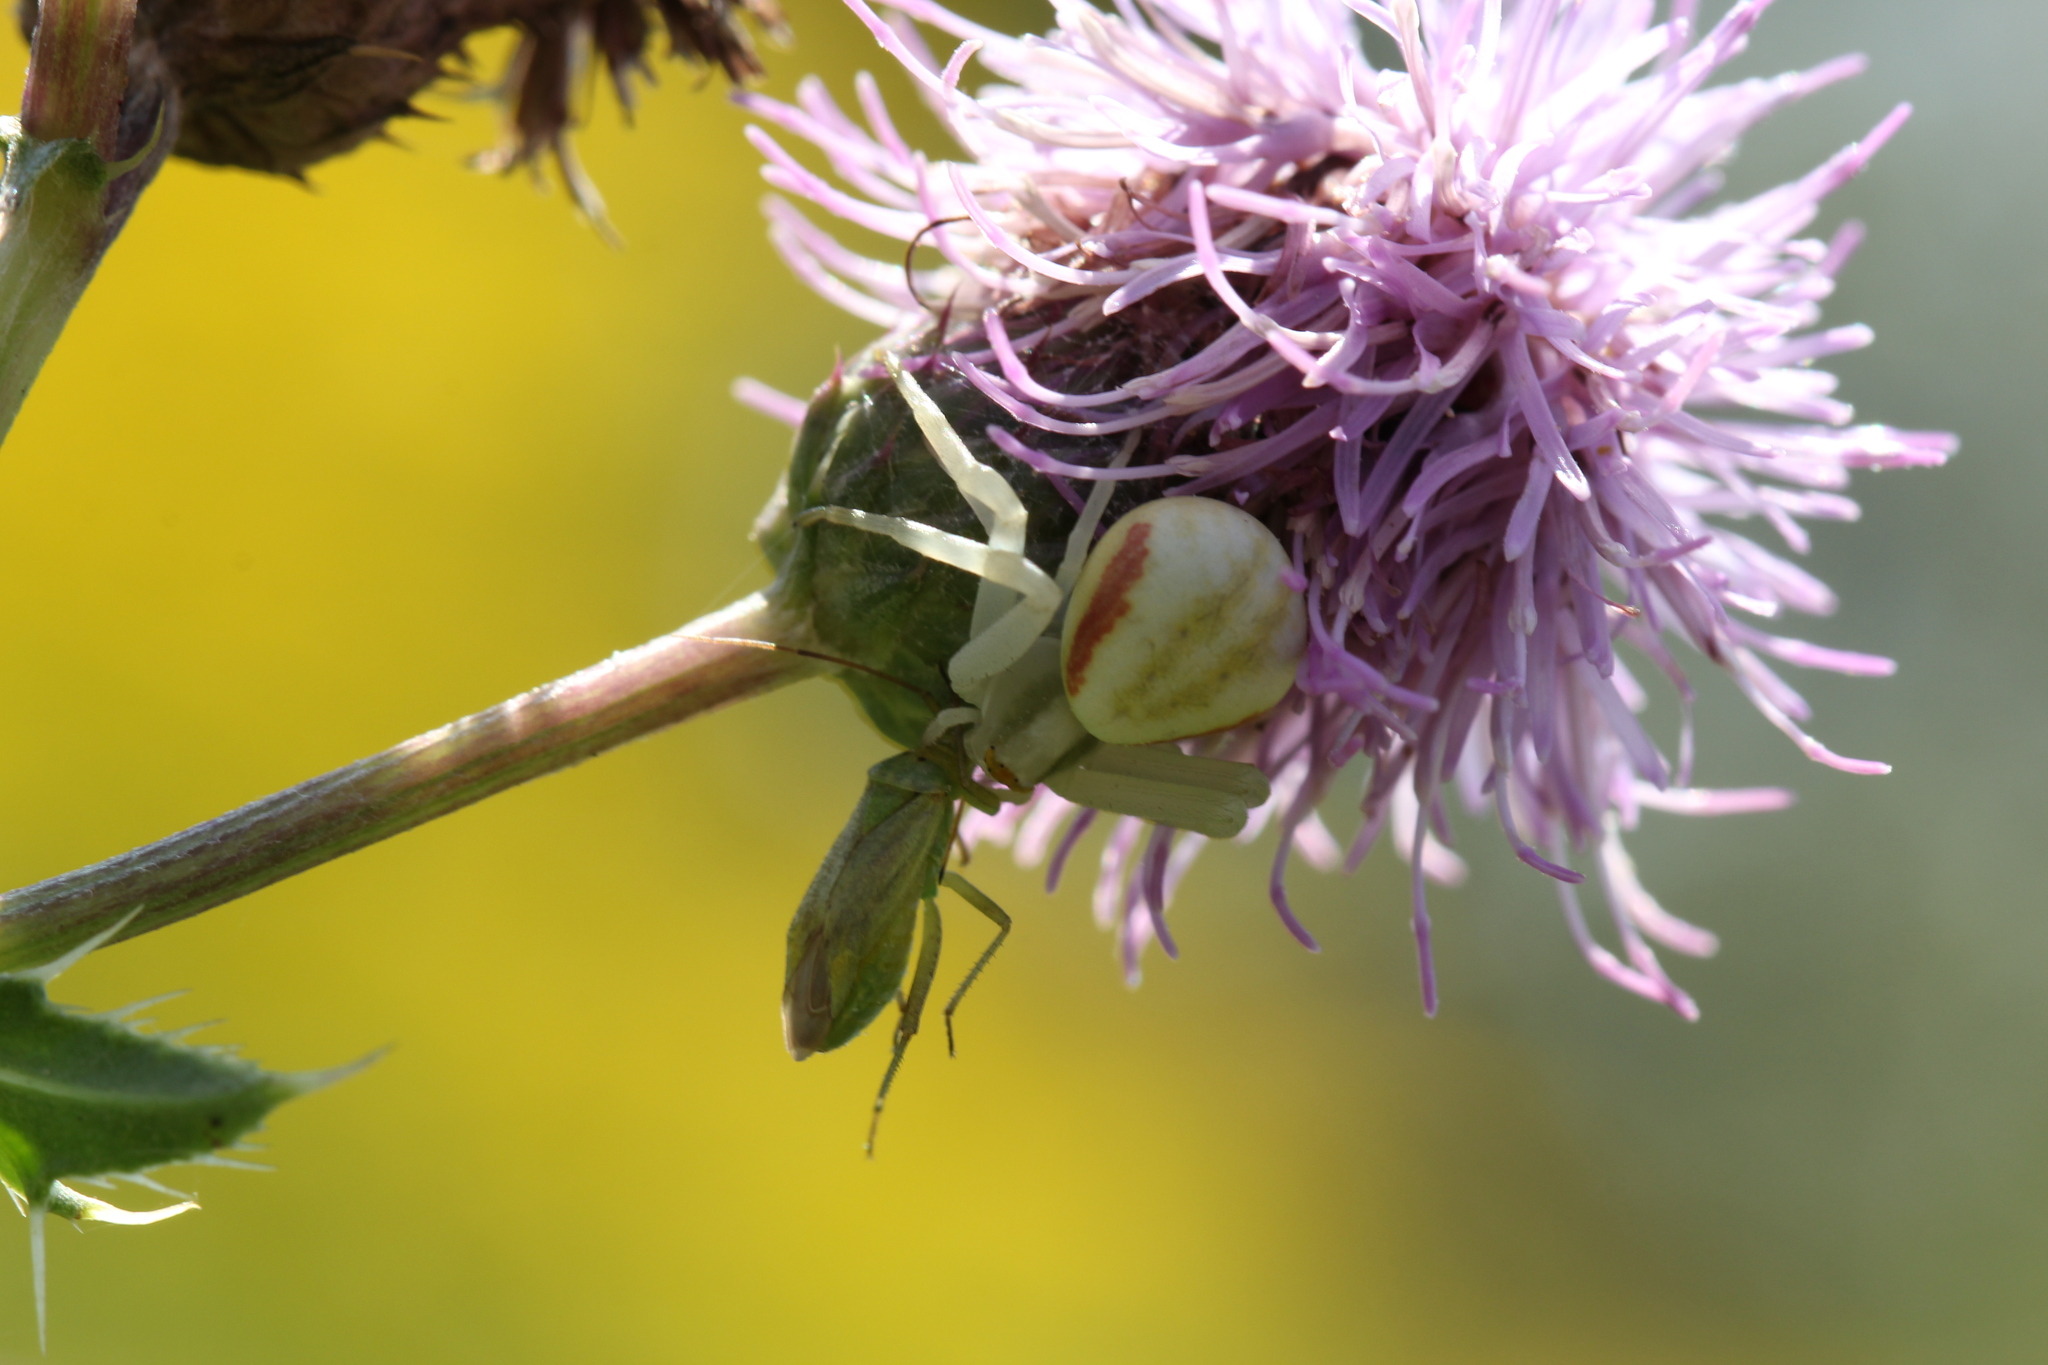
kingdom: Animalia
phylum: Arthropoda
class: Arachnida
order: Araneae
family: Thomisidae
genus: Misumena
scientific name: Misumena vatia
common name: Goldenrod crab spider
